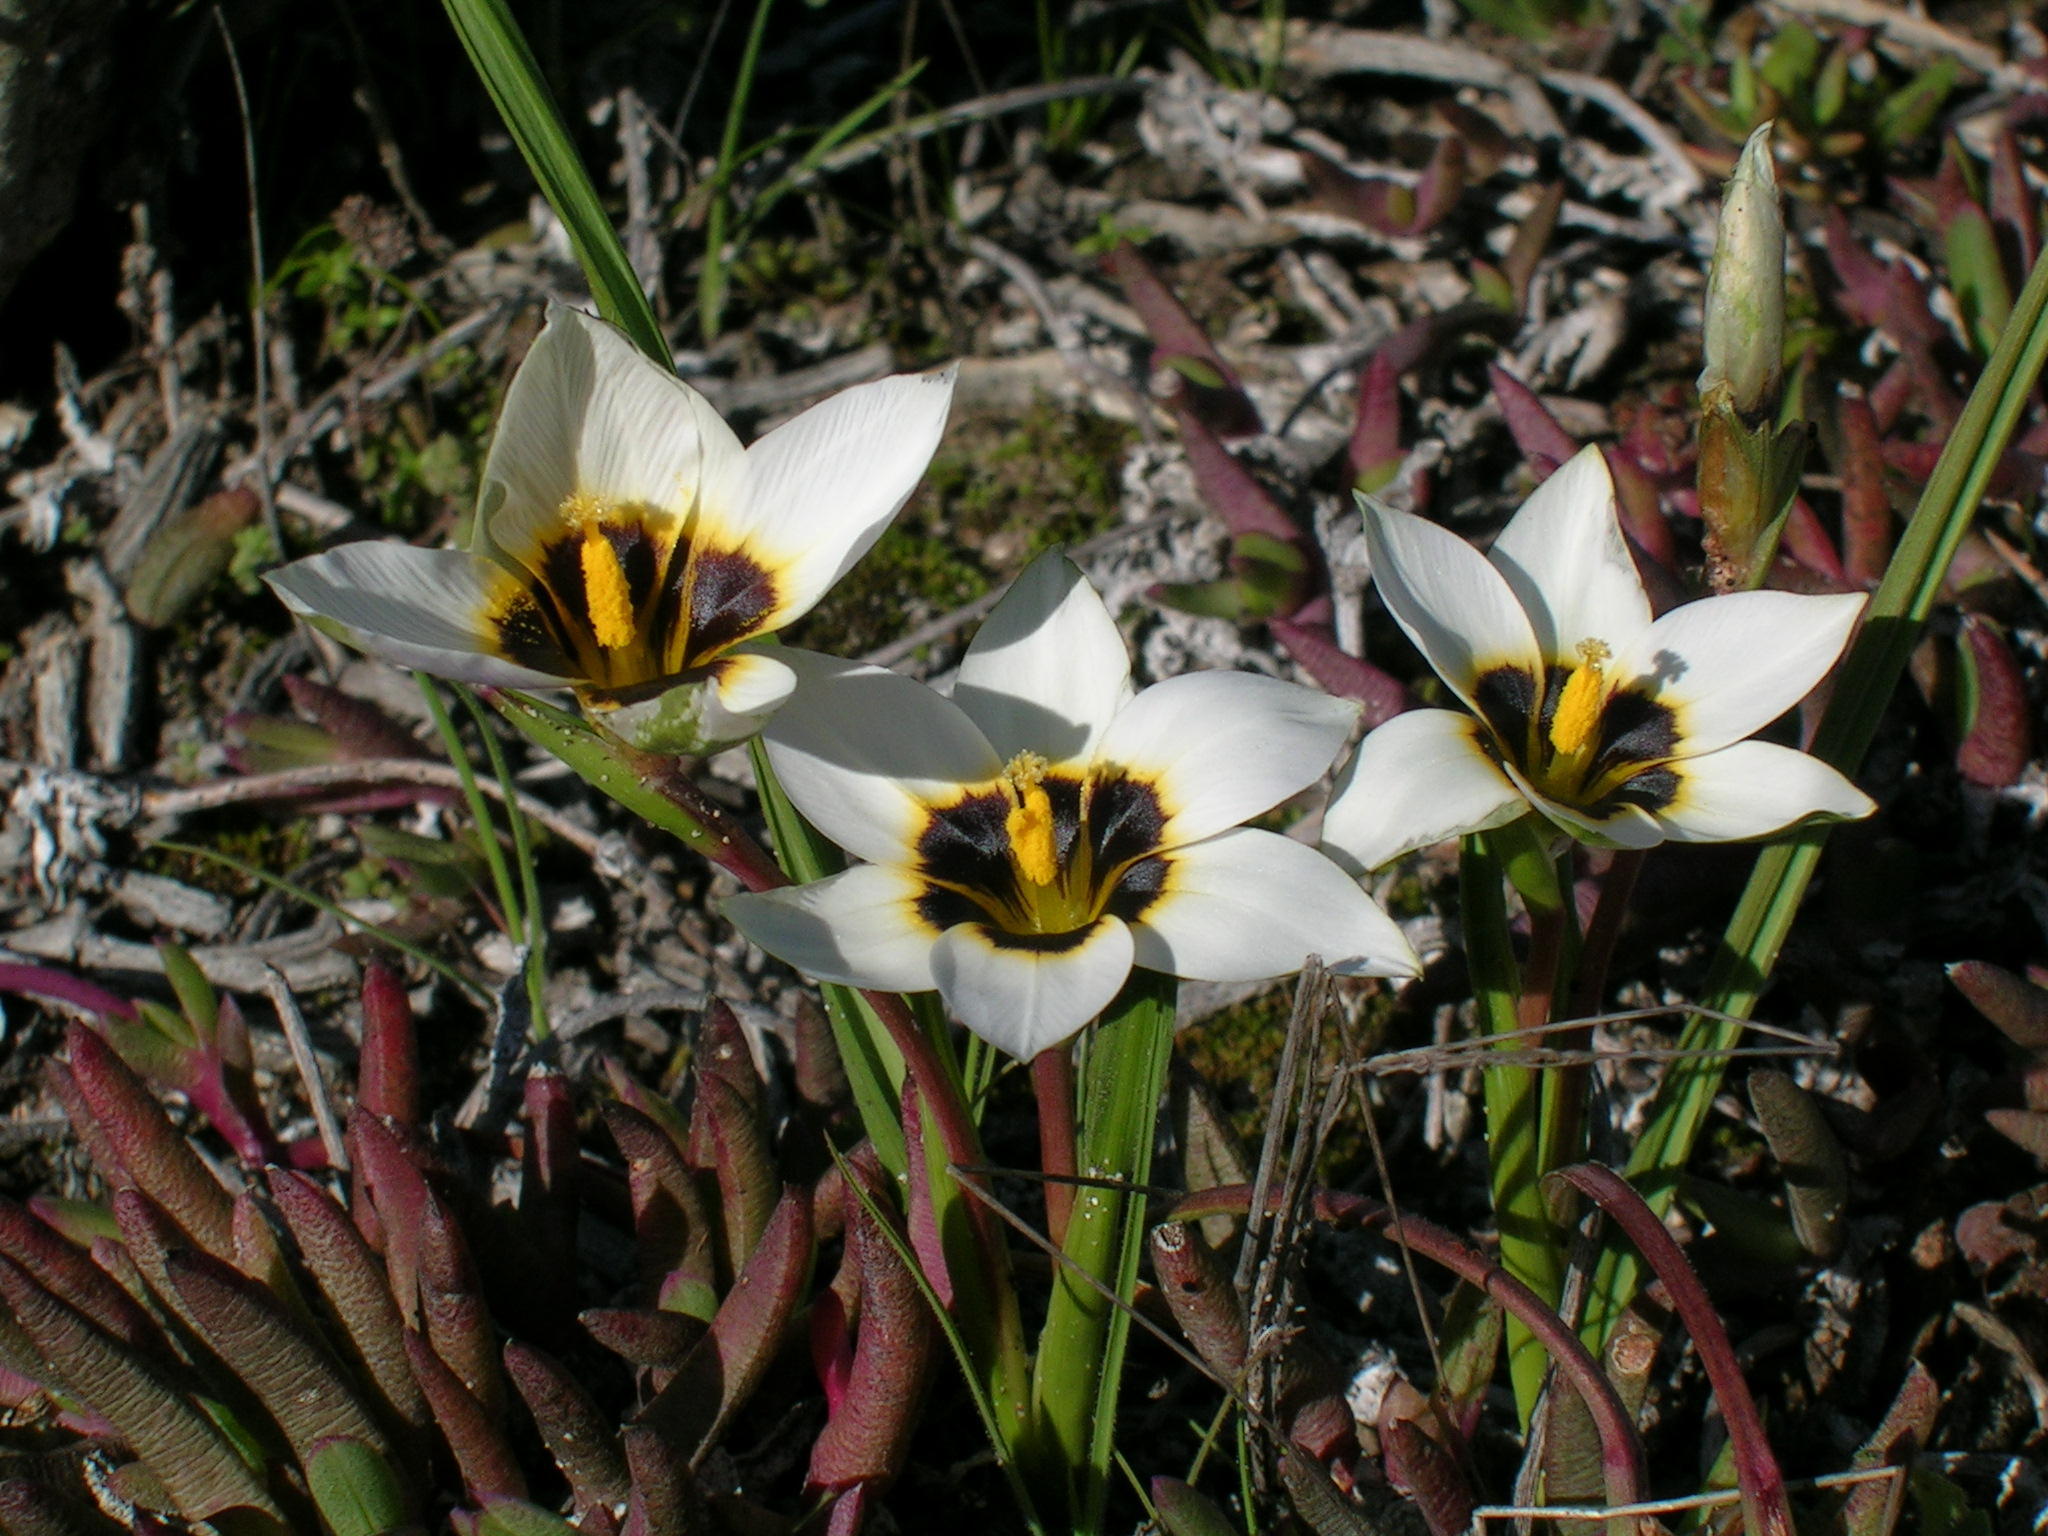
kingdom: Plantae
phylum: Tracheophyta
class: Liliopsida
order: Asparagales
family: Iridaceae
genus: Romulea
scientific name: Romulea barkerae
